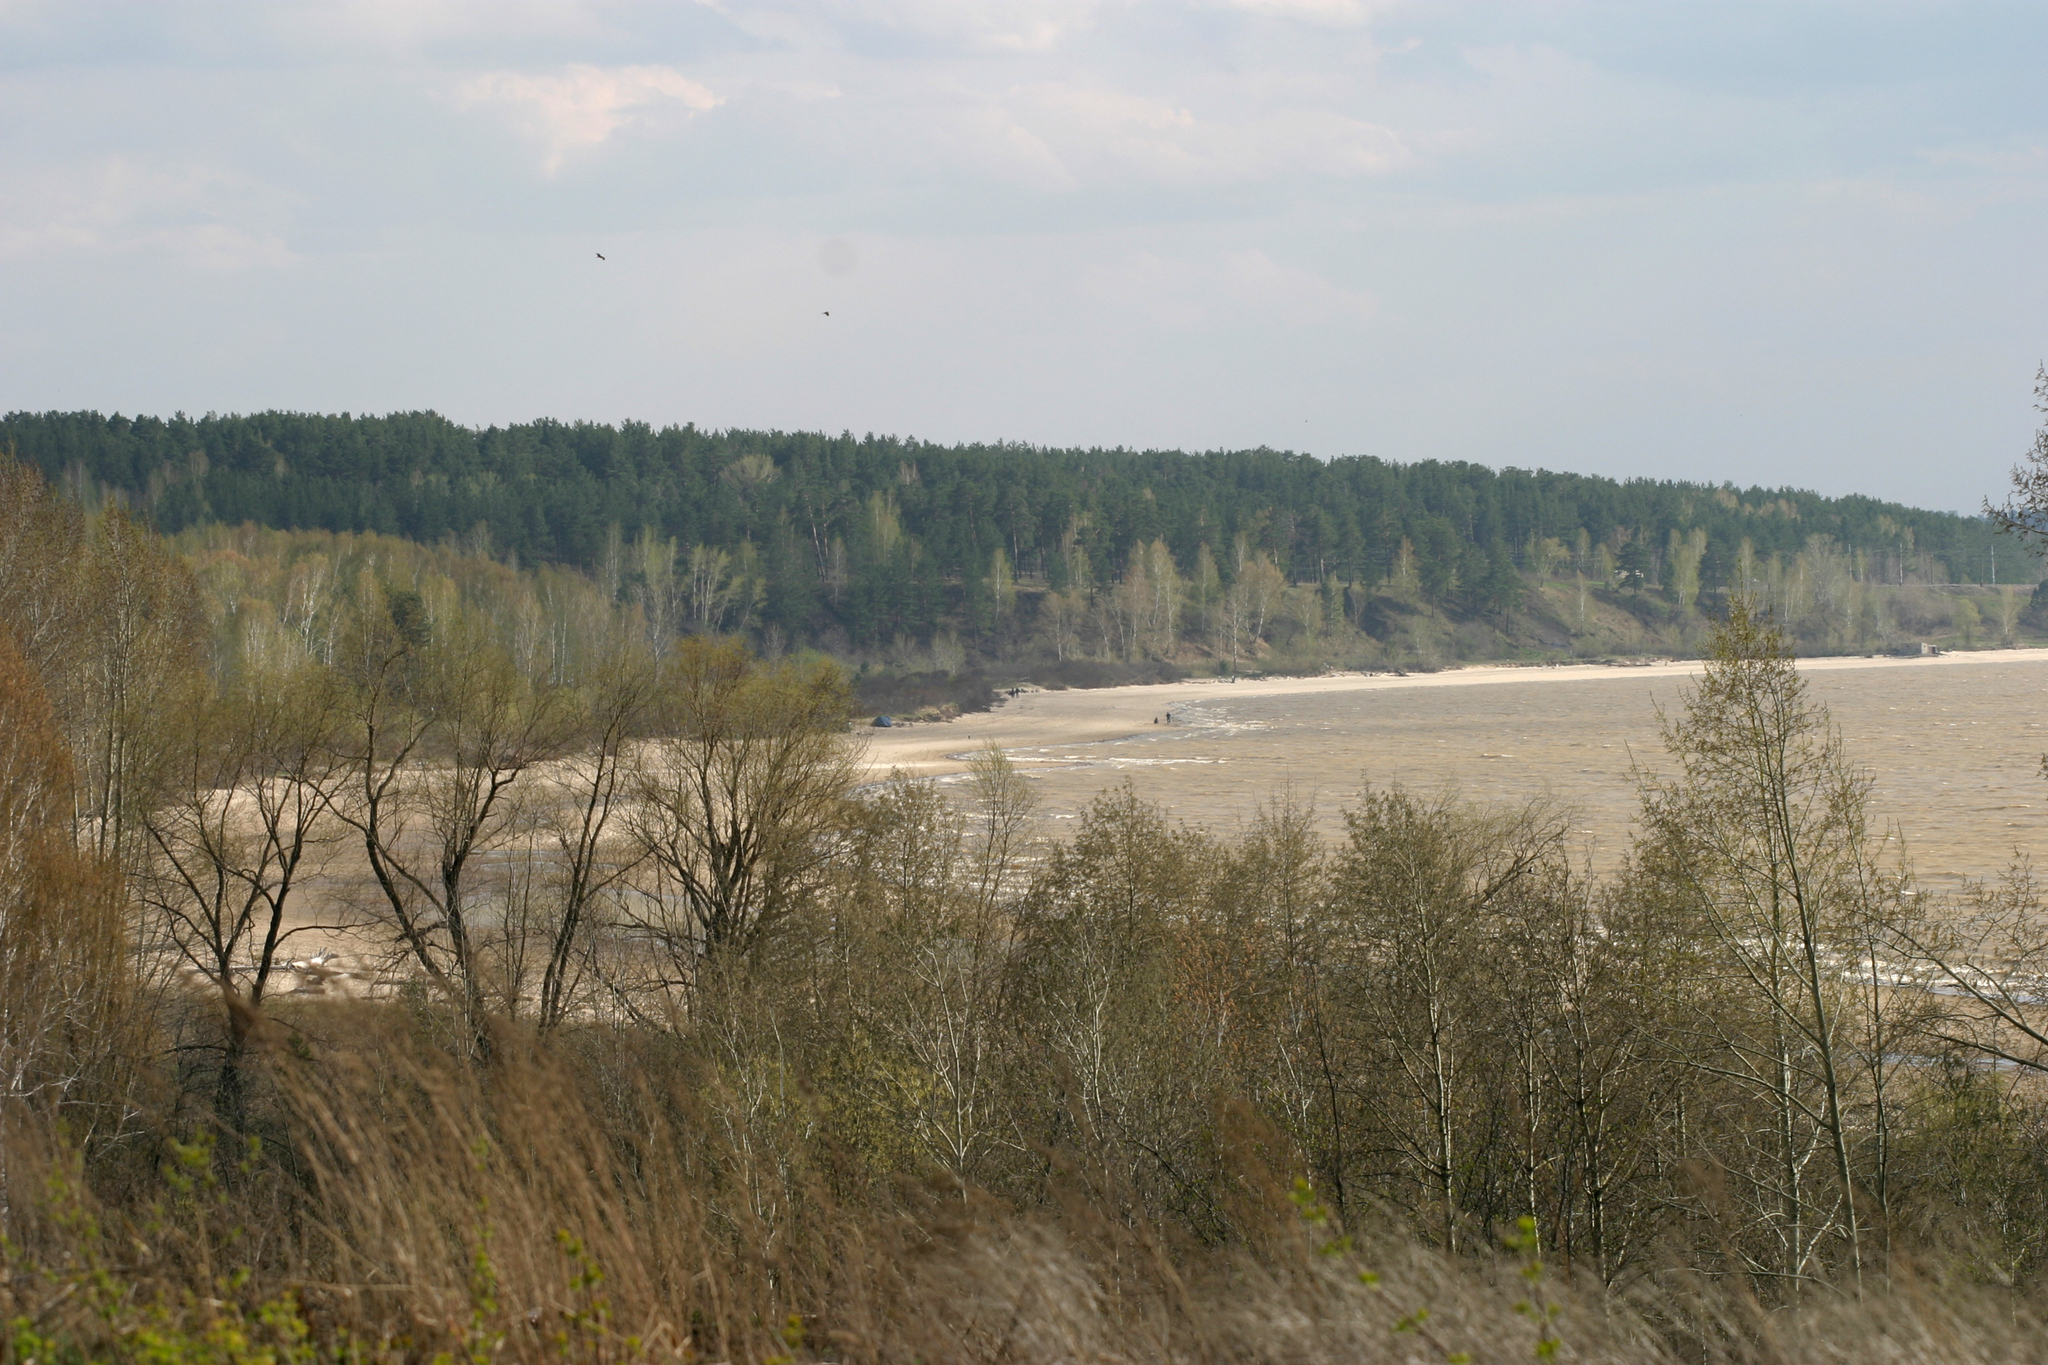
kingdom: Plantae
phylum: Tracheophyta
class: Magnoliopsida
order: Malpighiales
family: Salicaceae
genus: Populus
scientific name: Populus tremula
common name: European aspen
